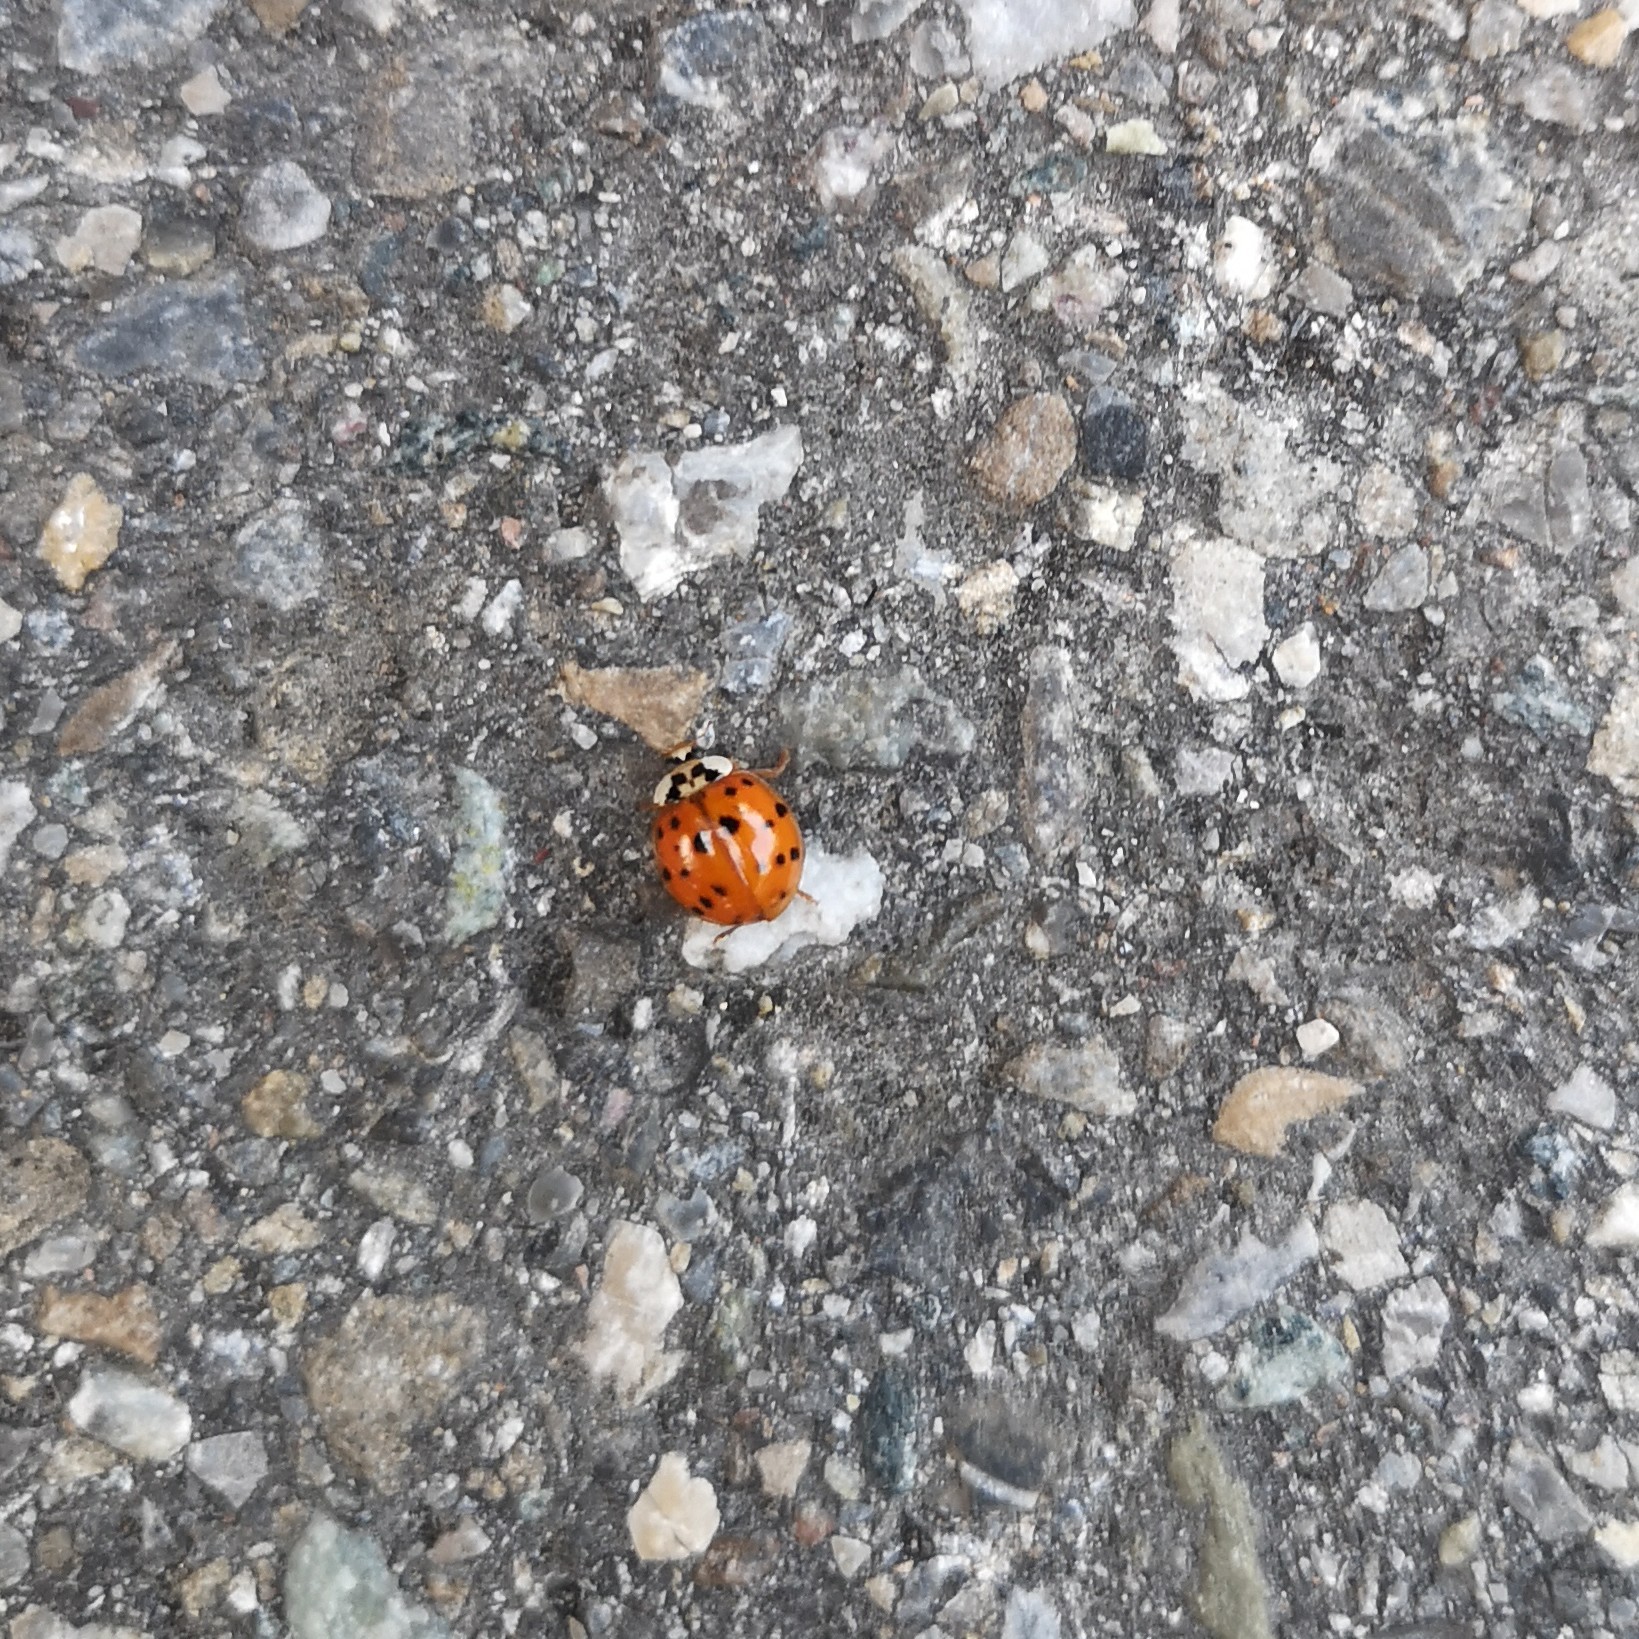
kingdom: Animalia
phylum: Arthropoda
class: Insecta
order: Coleoptera
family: Coccinellidae
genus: Harmonia
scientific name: Harmonia axyridis
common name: Harlequin ladybird
